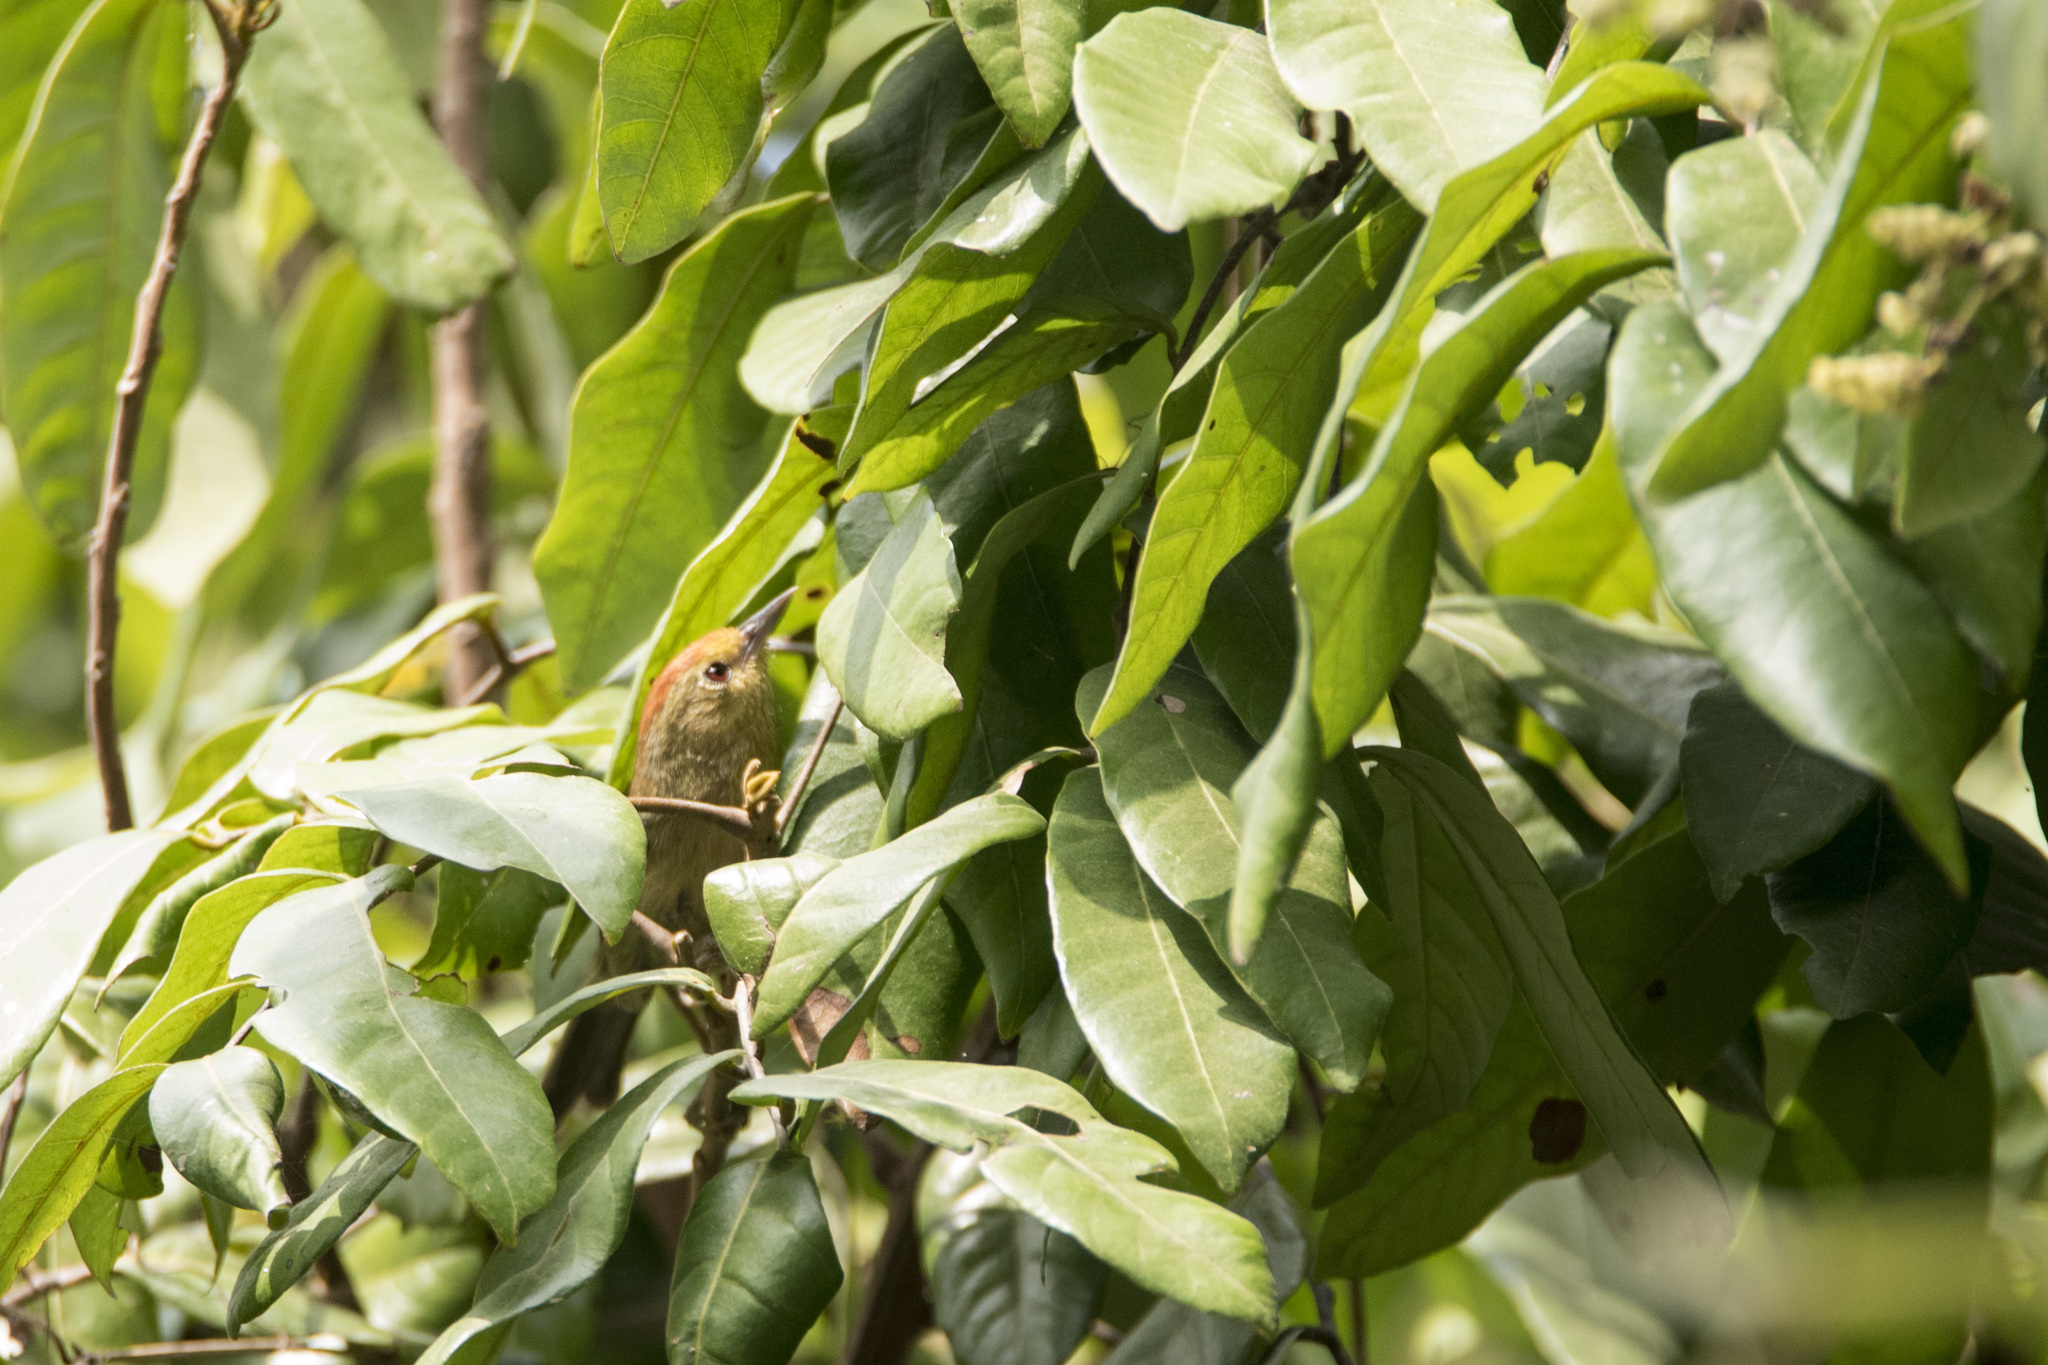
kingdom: Animalia
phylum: Chordata
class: Aves
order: Passeriformes
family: Timaliidae
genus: Stachyridopsis
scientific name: Stachyridopsis ruficeps
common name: Rufous-capped babbler
